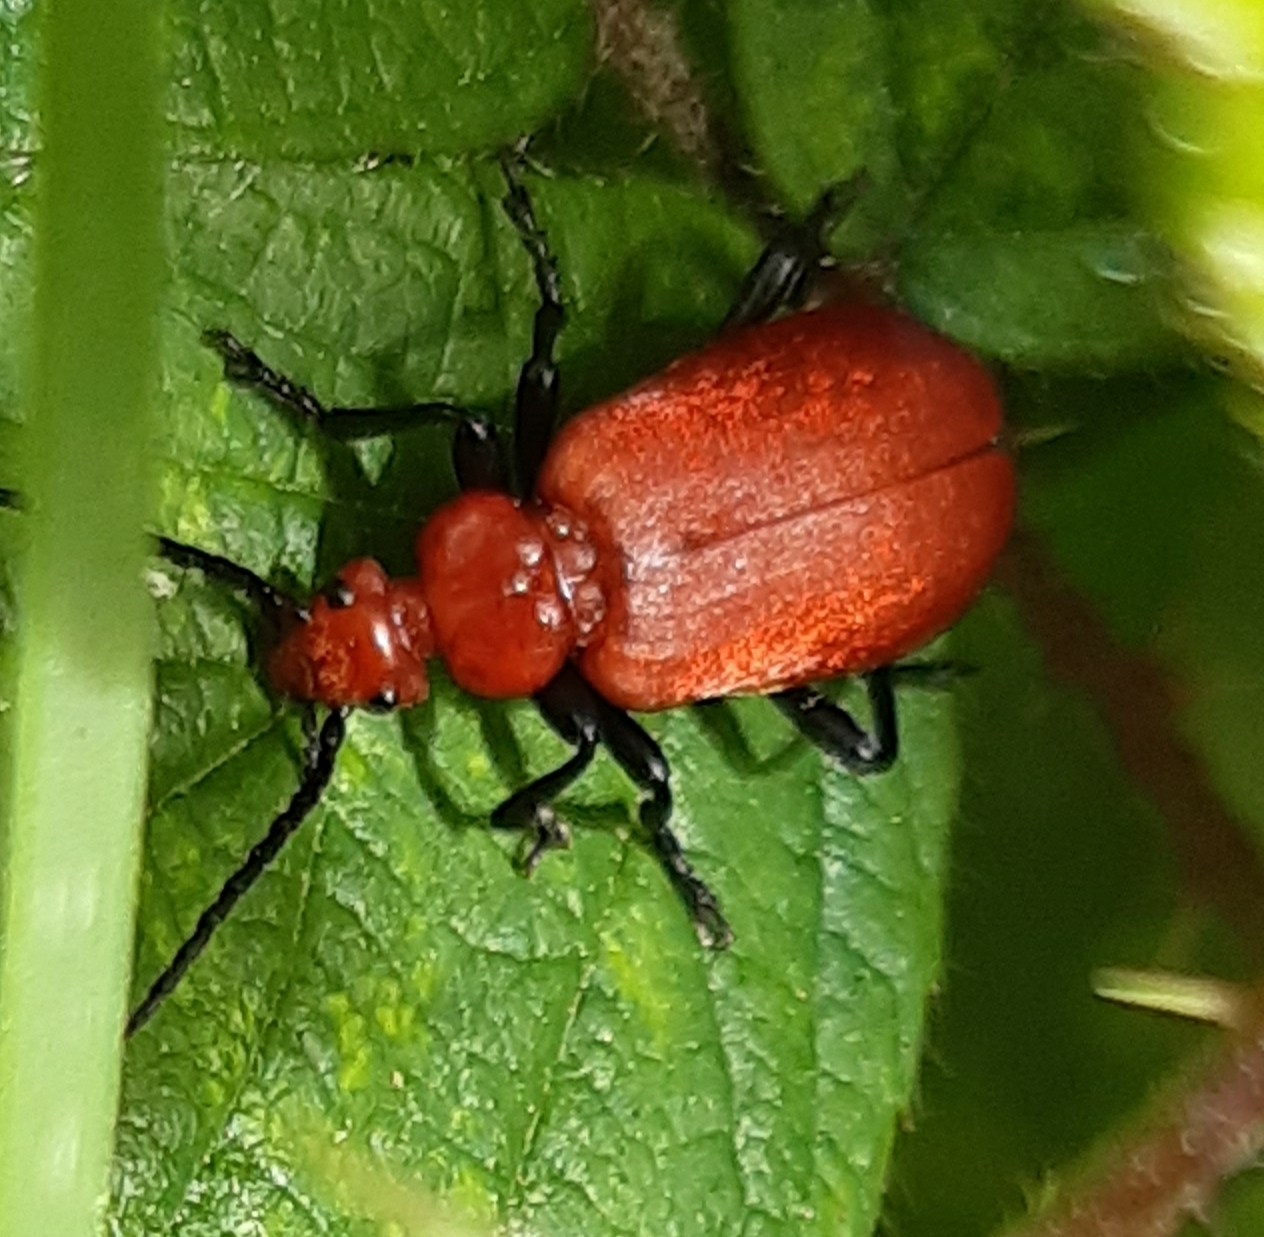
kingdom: Animalia
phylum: Arthropoda
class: Insecta
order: Coleoptera
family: Pyrochroidae
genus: Pyrochroa
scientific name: Pyrochroa serraticornis
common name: Red-headed cardinal beetle
